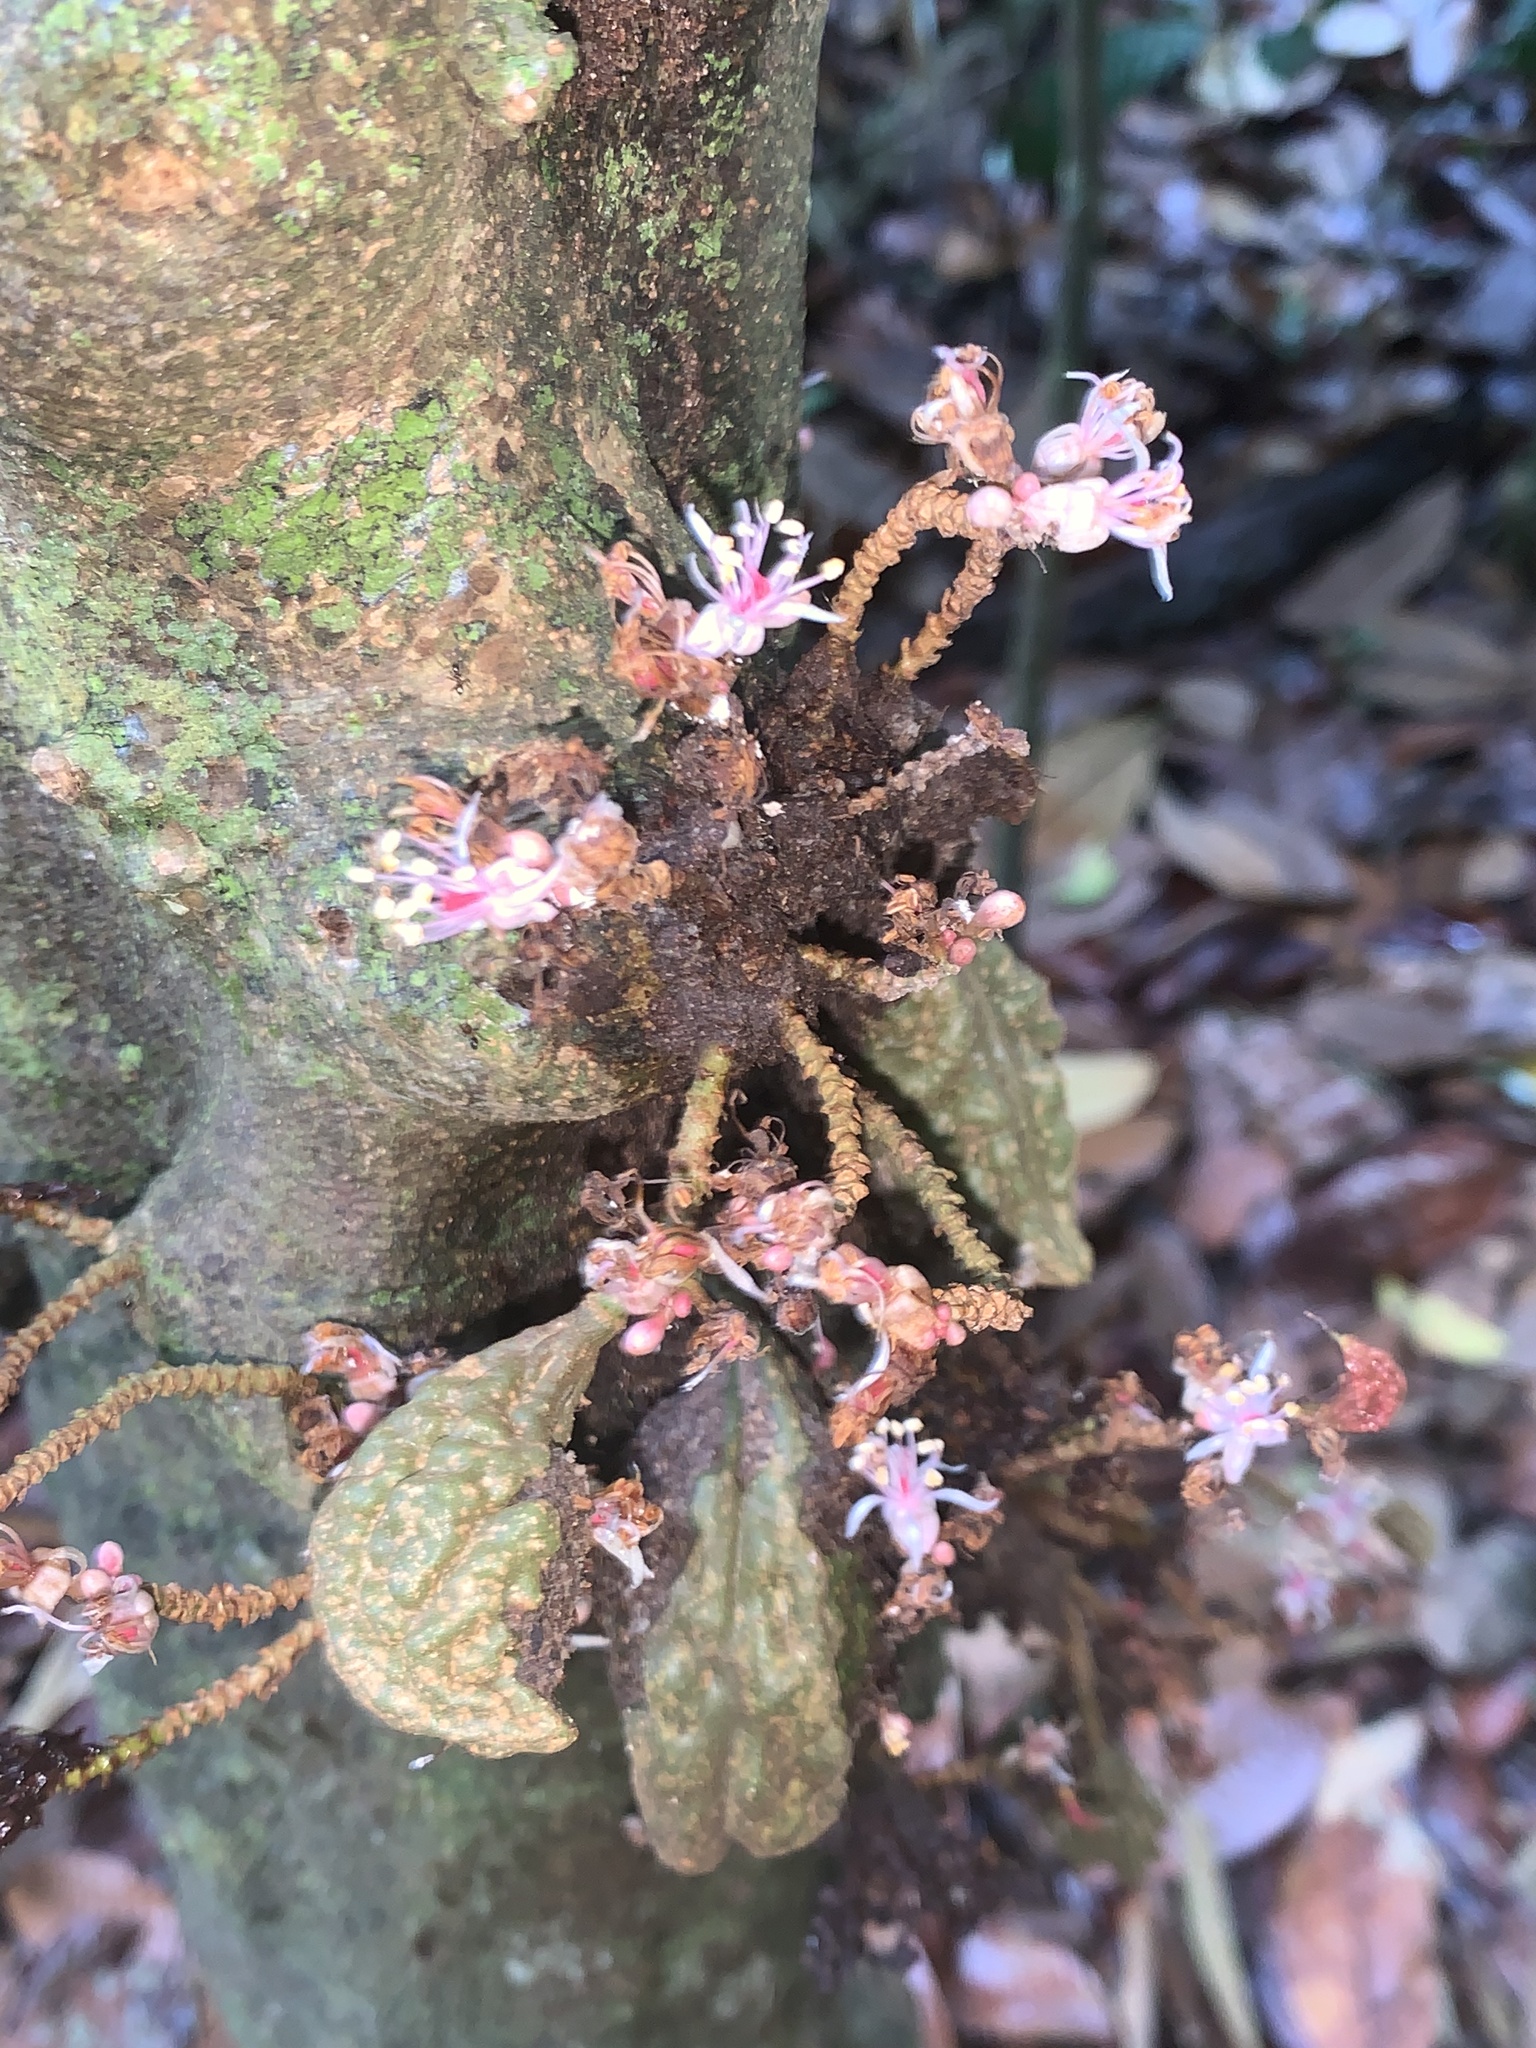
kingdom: Plantae
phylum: Tracheophyta
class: Magnoliopsida
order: Fabales
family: Fabaceae
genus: Cynometra
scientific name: Cynometra cauliflora
